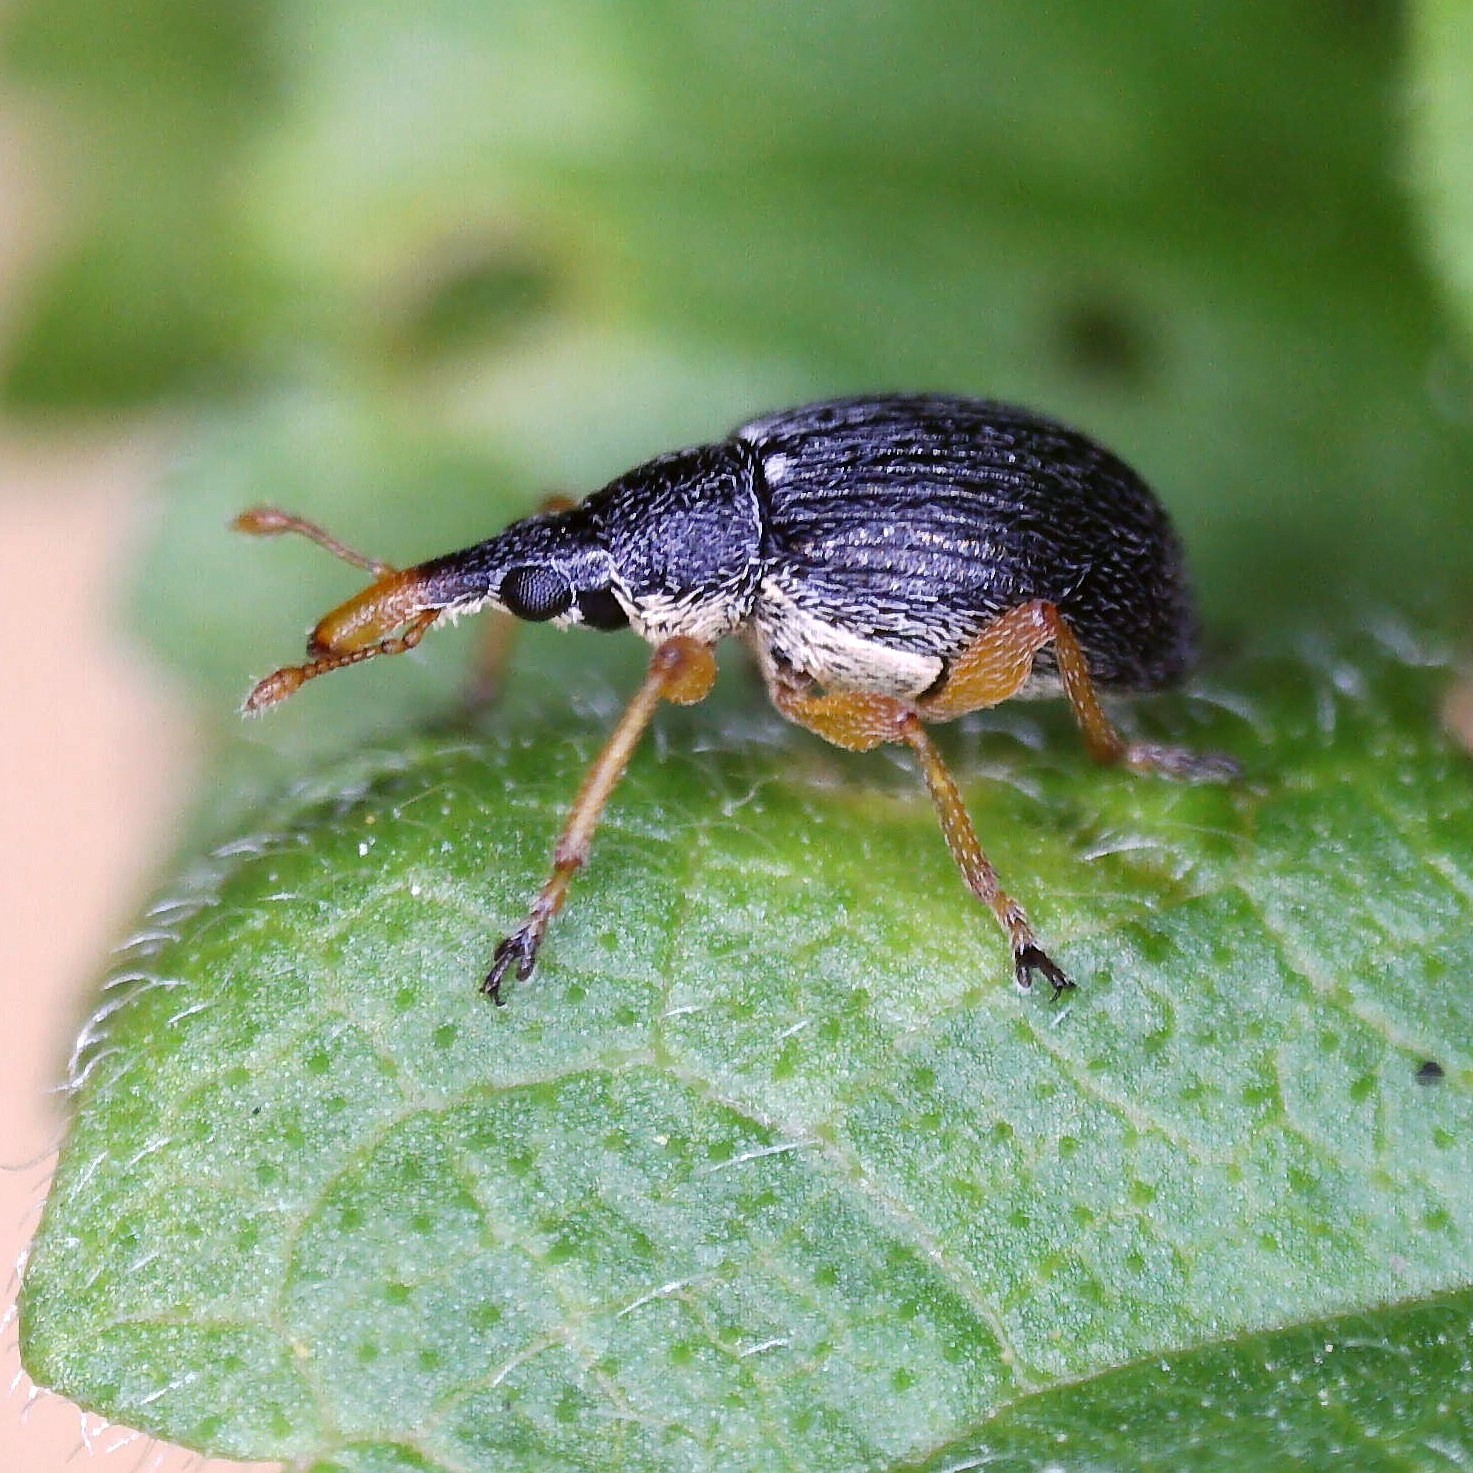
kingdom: Animalia
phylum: Arthropoda
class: Insecta
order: Coleoptera
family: Apionidae
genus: Pseudapion
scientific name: Pseudapion rufirostre
